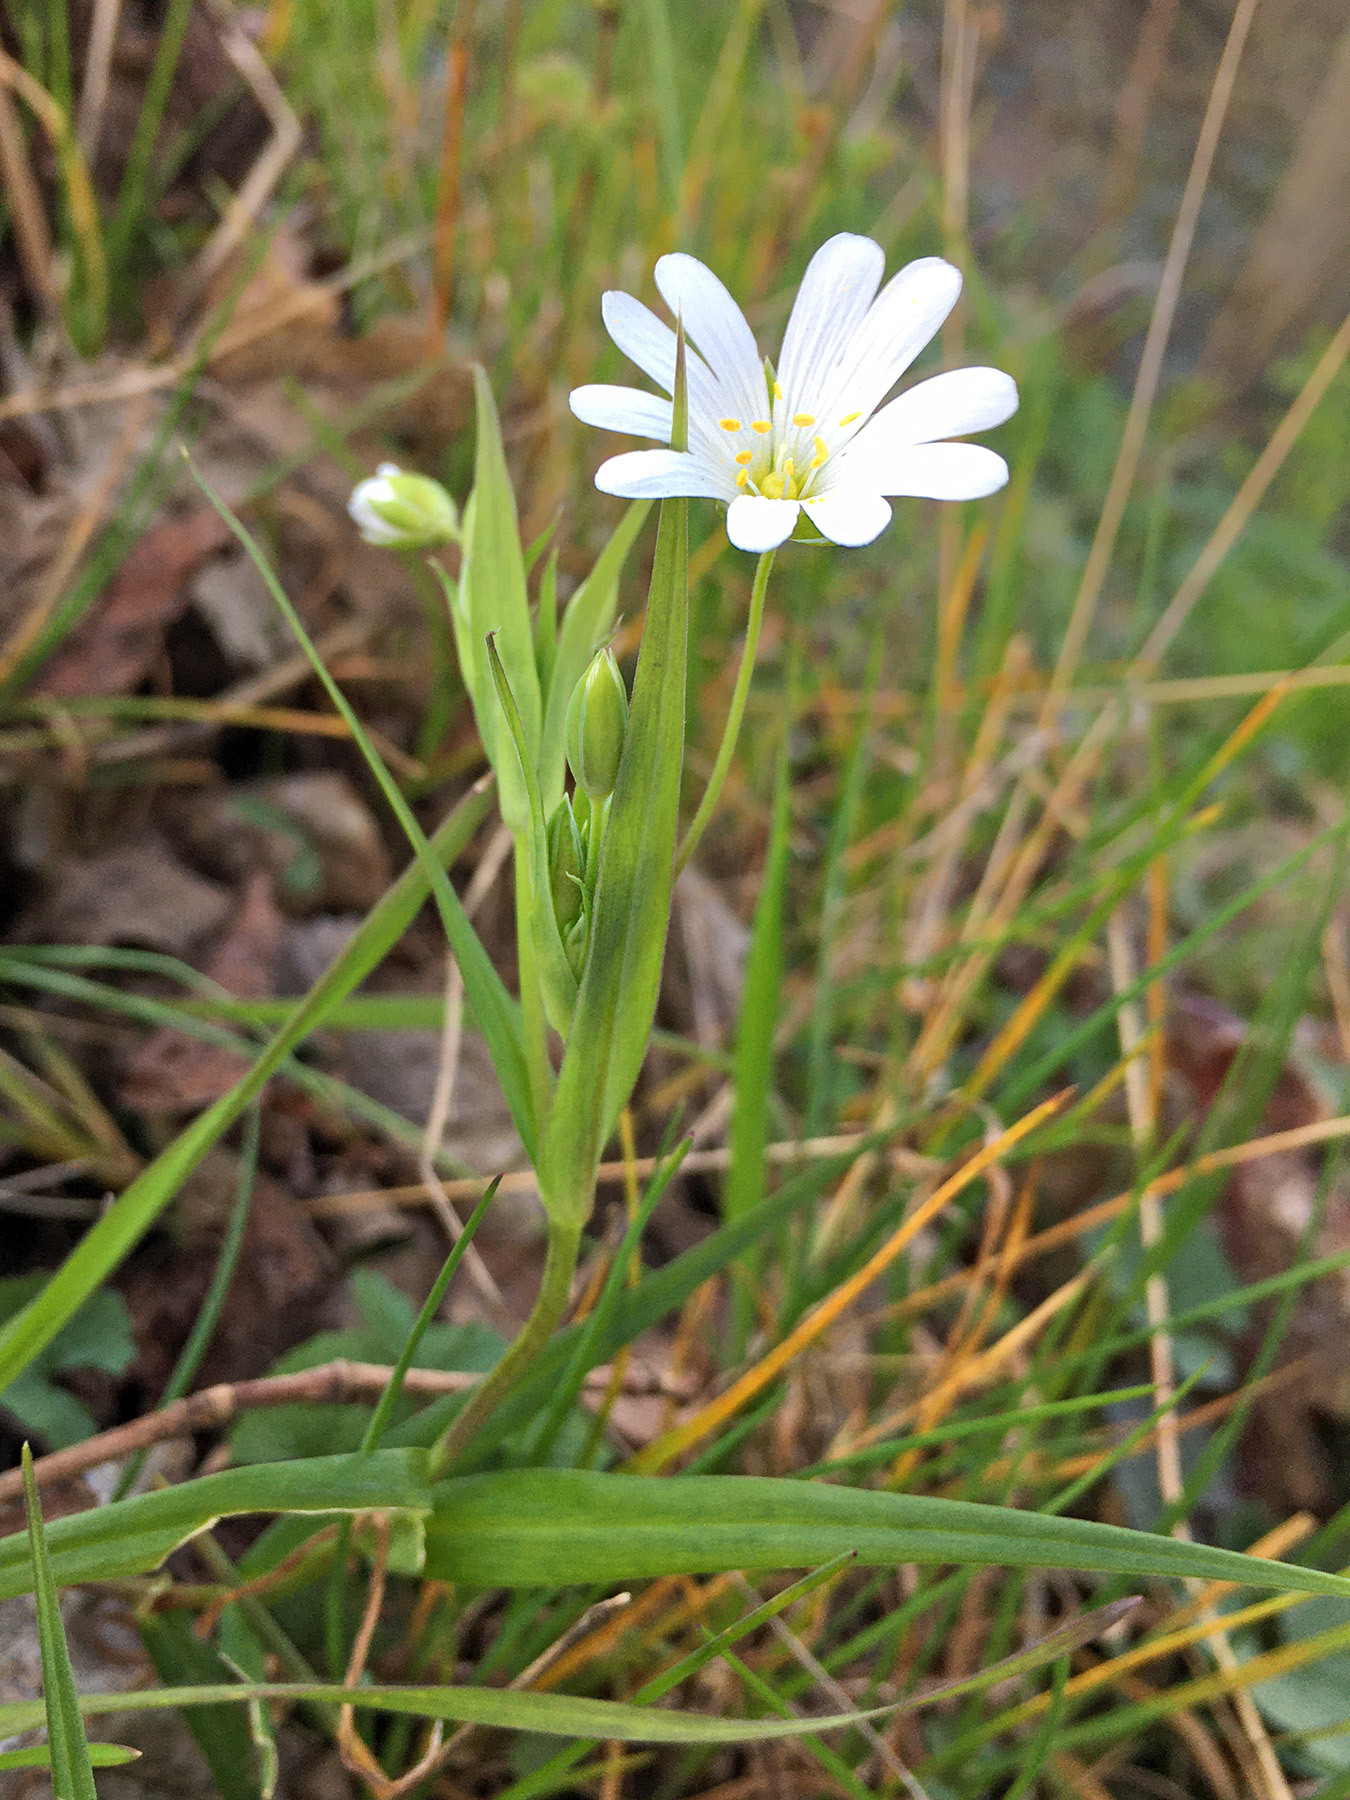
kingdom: Plantae
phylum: Tracheophyta
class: Magnoliopsida
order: Caryophyllales
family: Caryophyllaceae
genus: Rabelera
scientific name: Rabelera holostea
